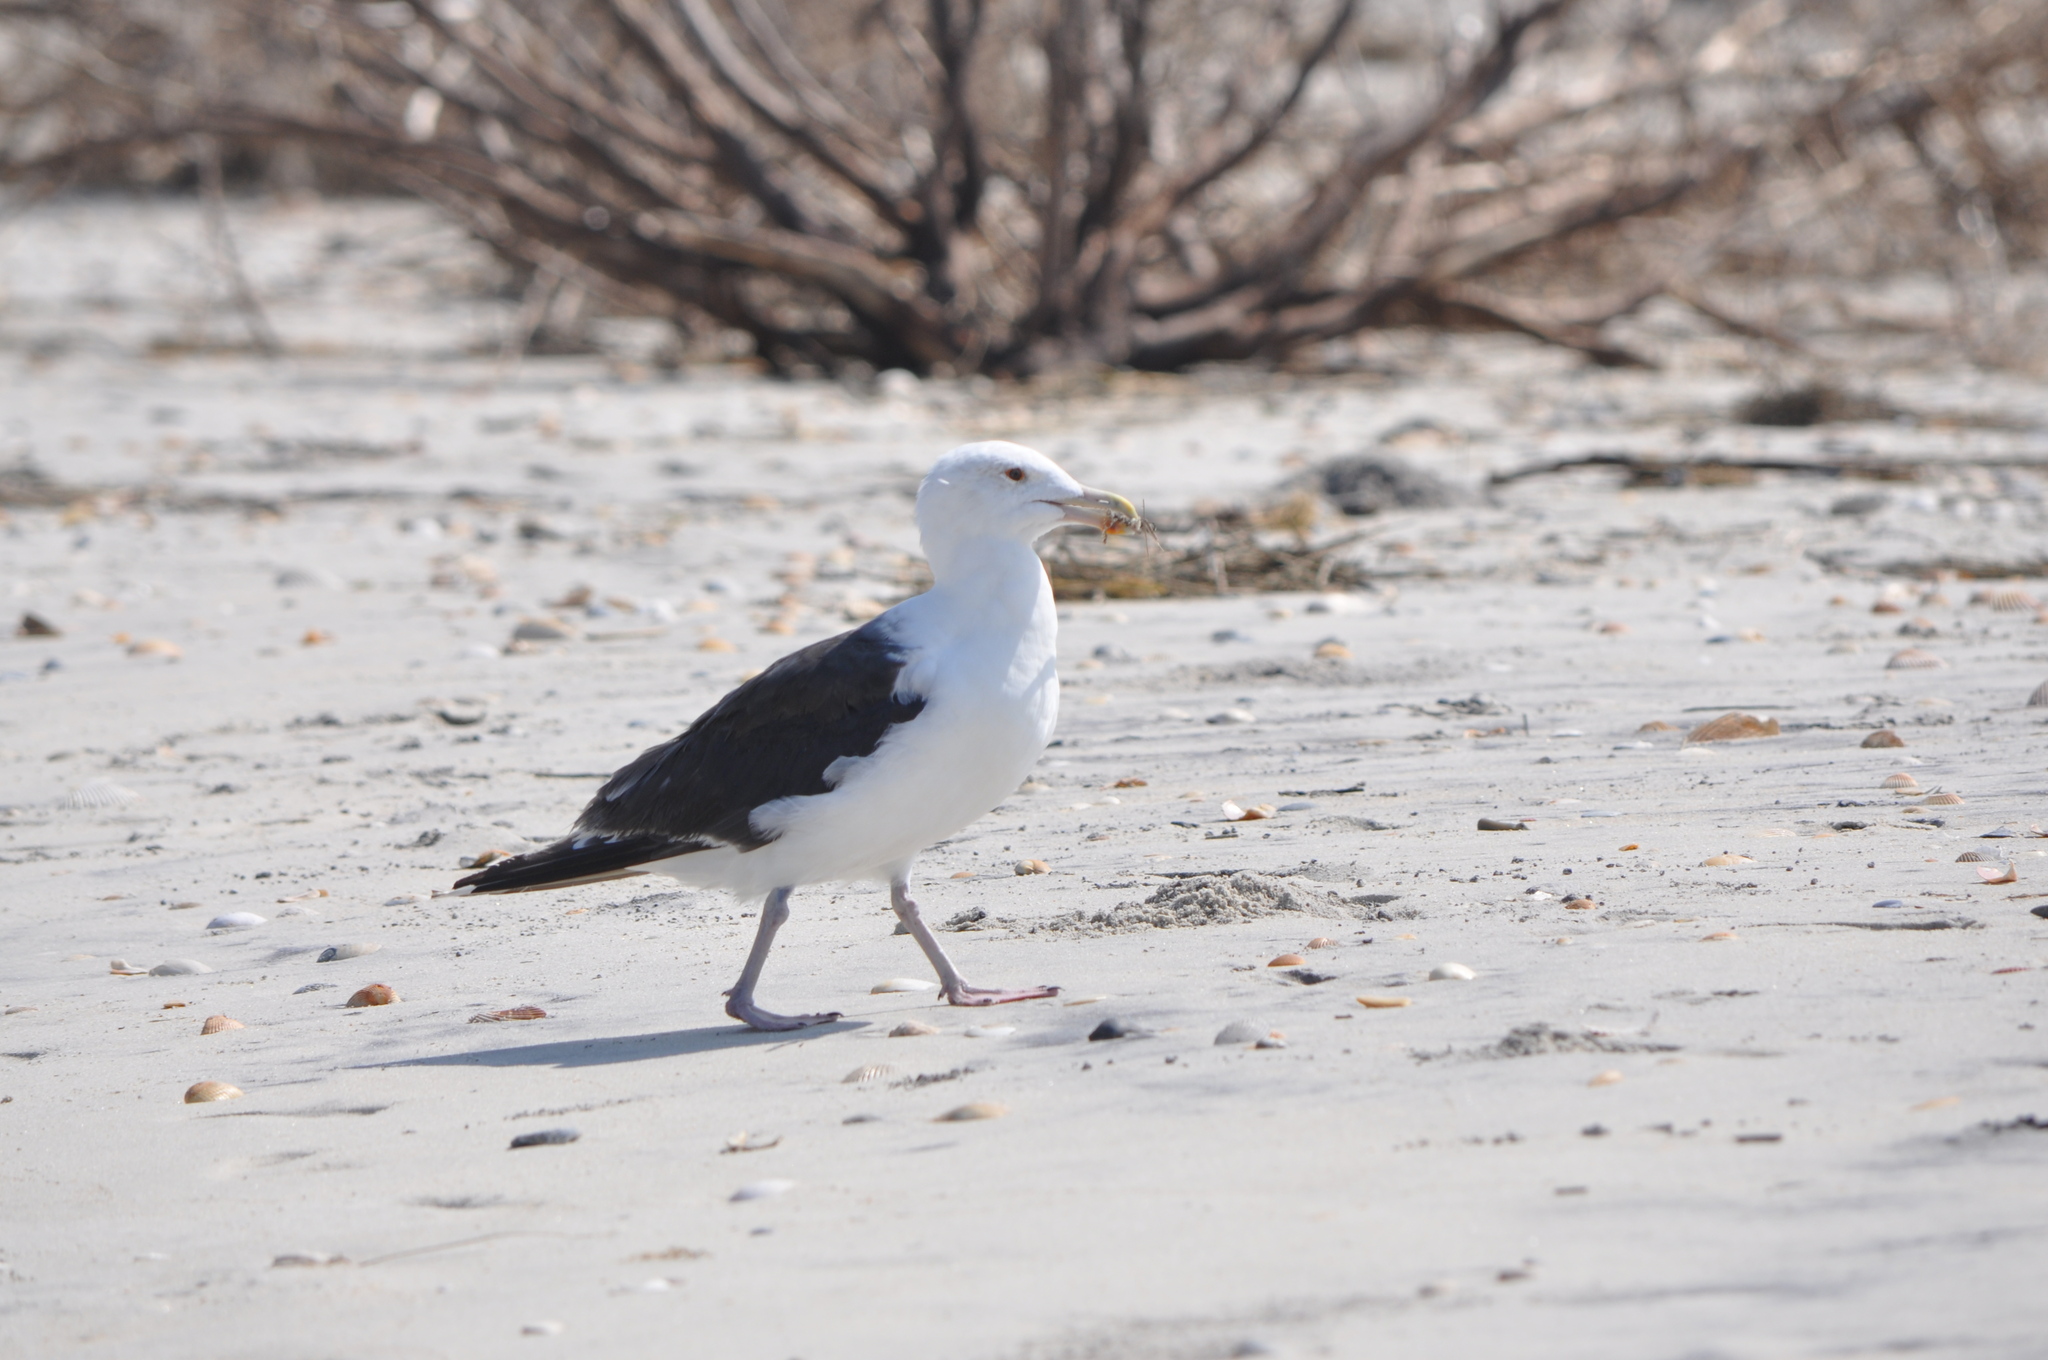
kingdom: Animalia
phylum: Chordata
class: Aves
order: Charadriiformes
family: Laridae
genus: Larus
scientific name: Larus marinus
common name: Great black-backed gull
